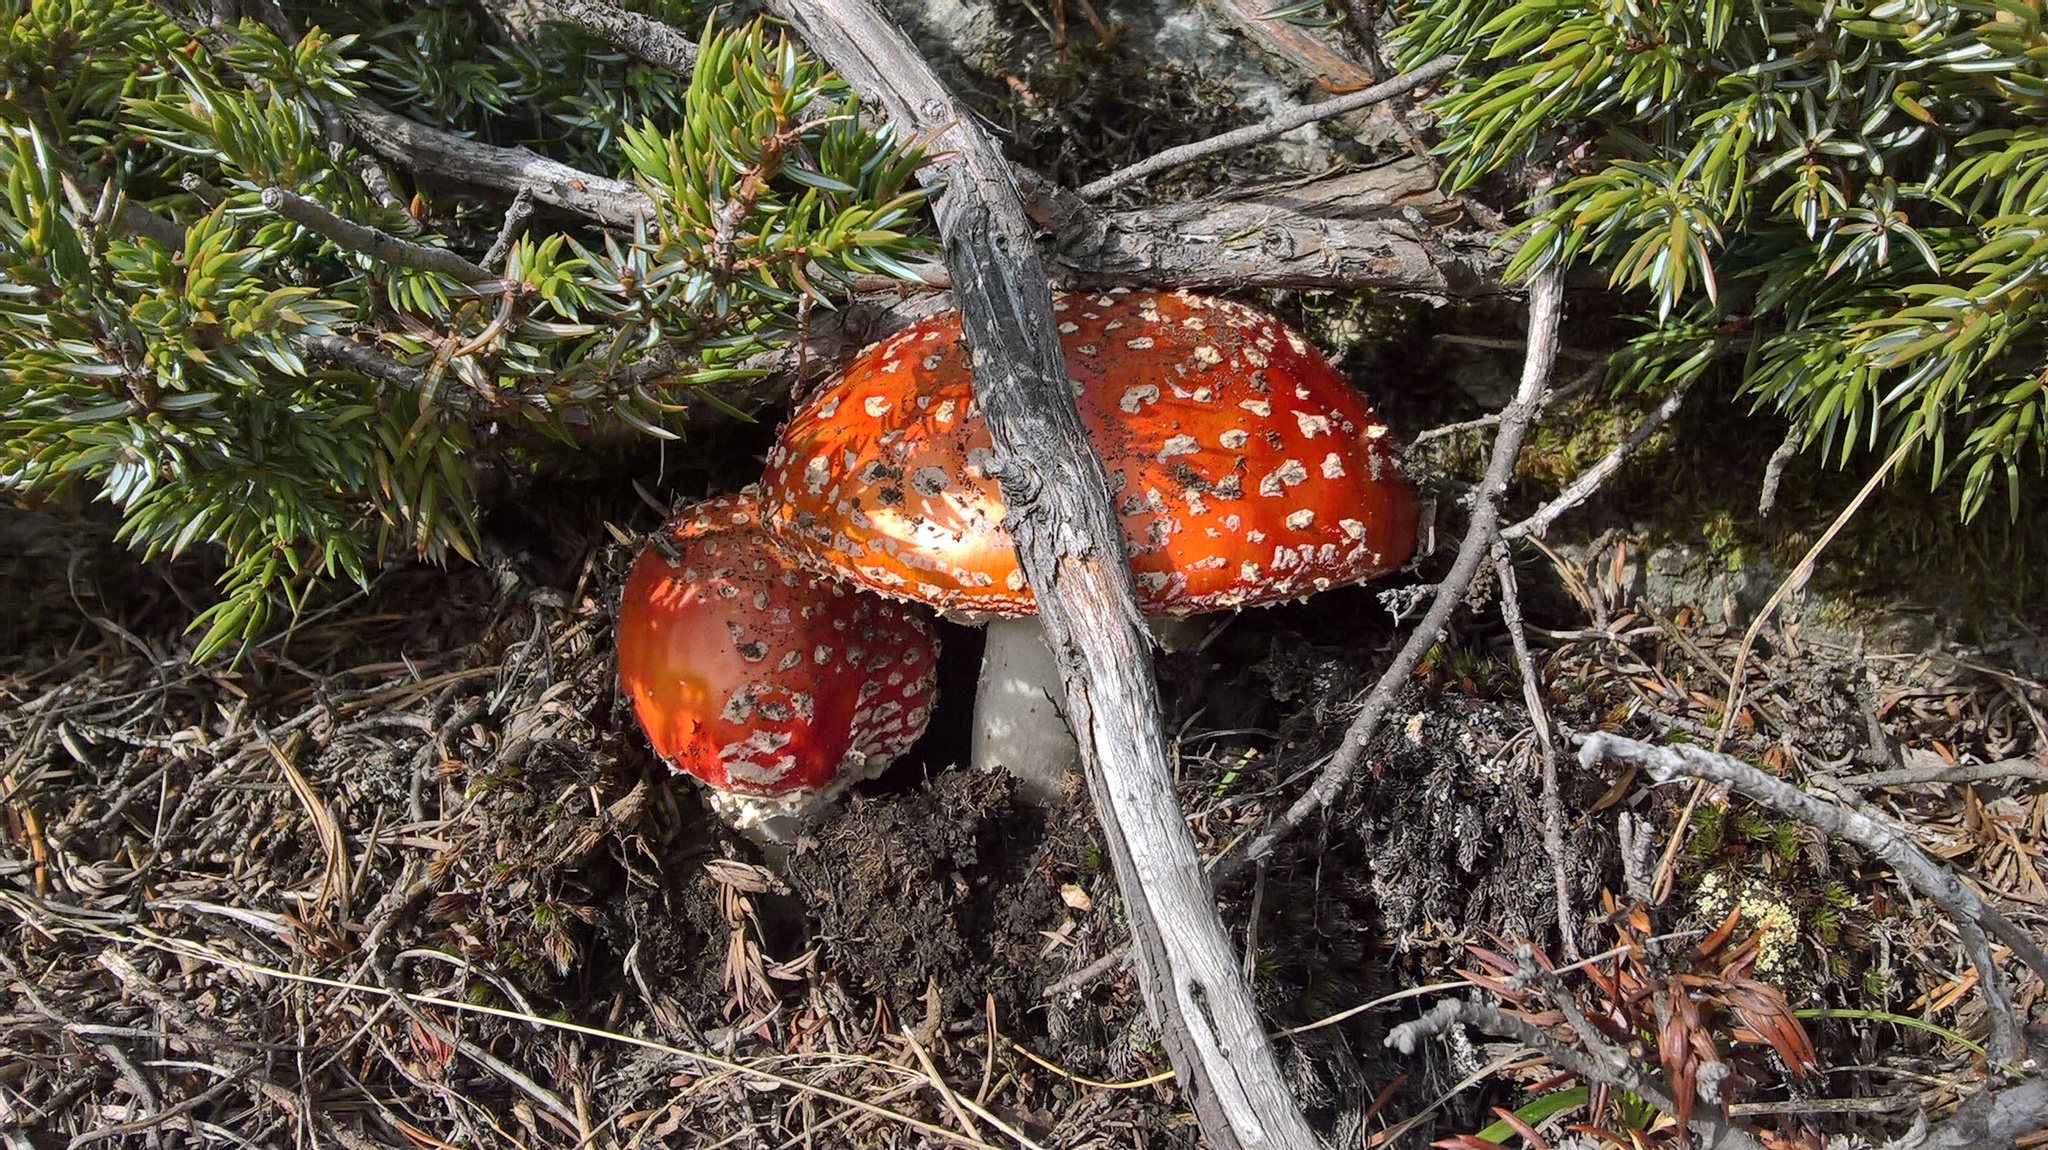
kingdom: Fungi
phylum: Basidiomycota
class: Agaricomycetes
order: Agaricales
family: Amanitaceae
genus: Amanita
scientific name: Amanita muscaria
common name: Fly agaric
